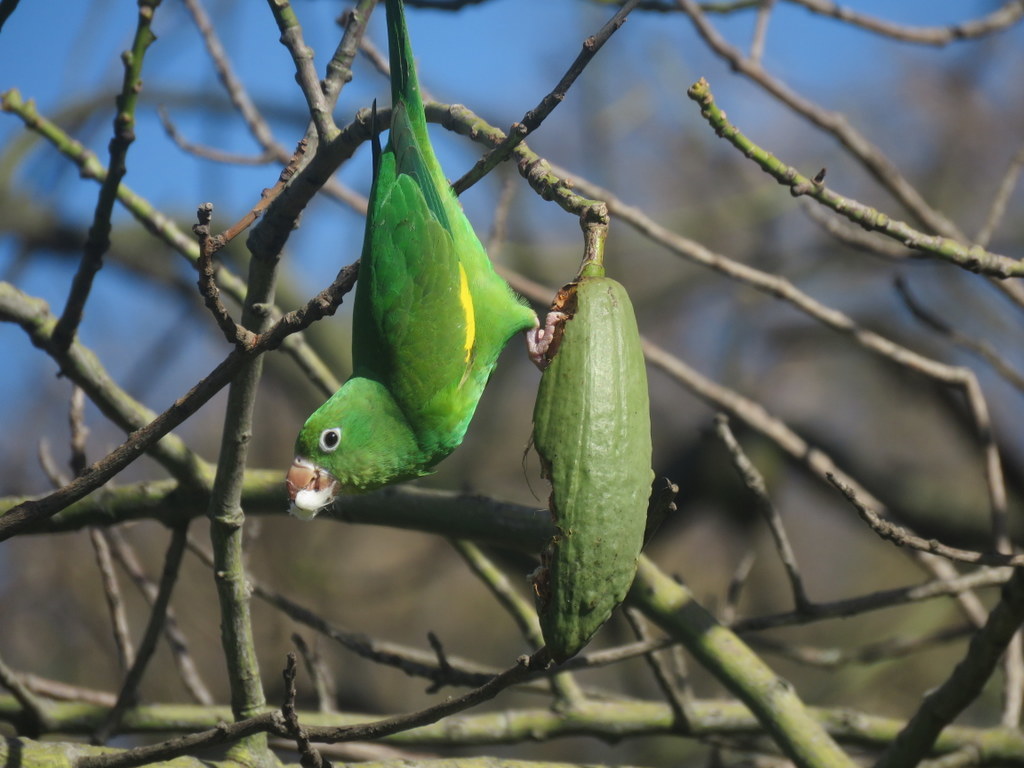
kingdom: Animalia
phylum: Chordata
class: Aves
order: Psittaciformes
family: Psittacidae
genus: Brotogeris
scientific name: Brotogeris chiriri
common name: Yellow-chevroned parakeet
